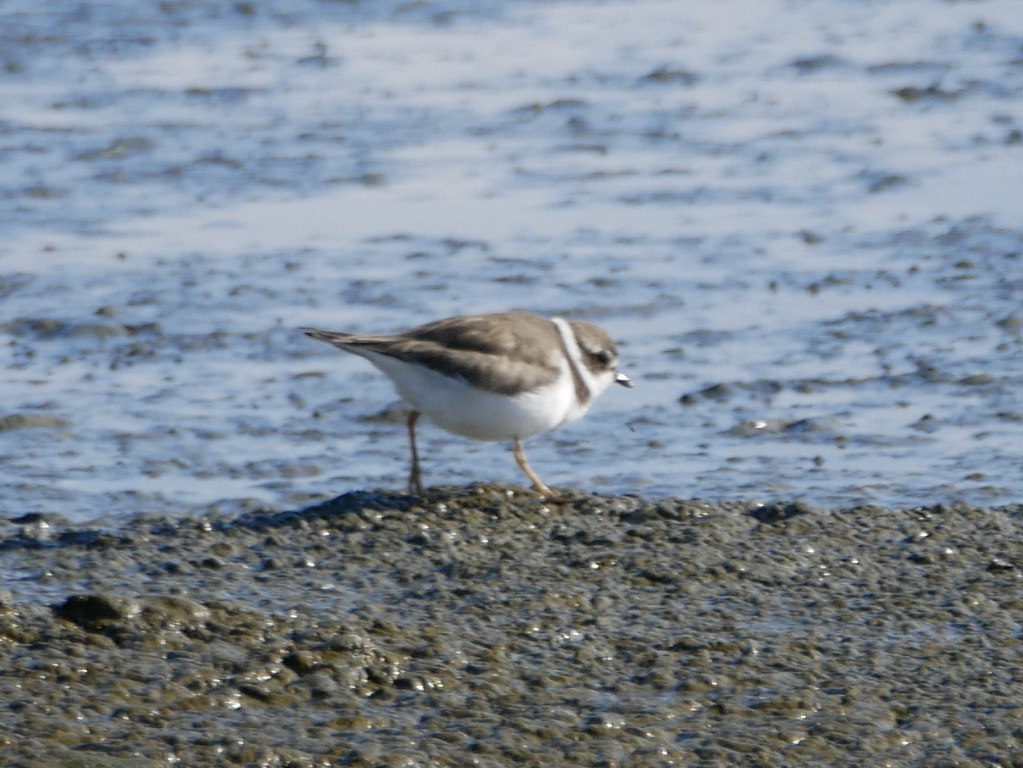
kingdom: Animalia
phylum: Chordata
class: Aves
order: Charadriiformes
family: Charadriidae
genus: Charadrius
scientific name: Charadrius semipalmatus
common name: Semipalmated plover
